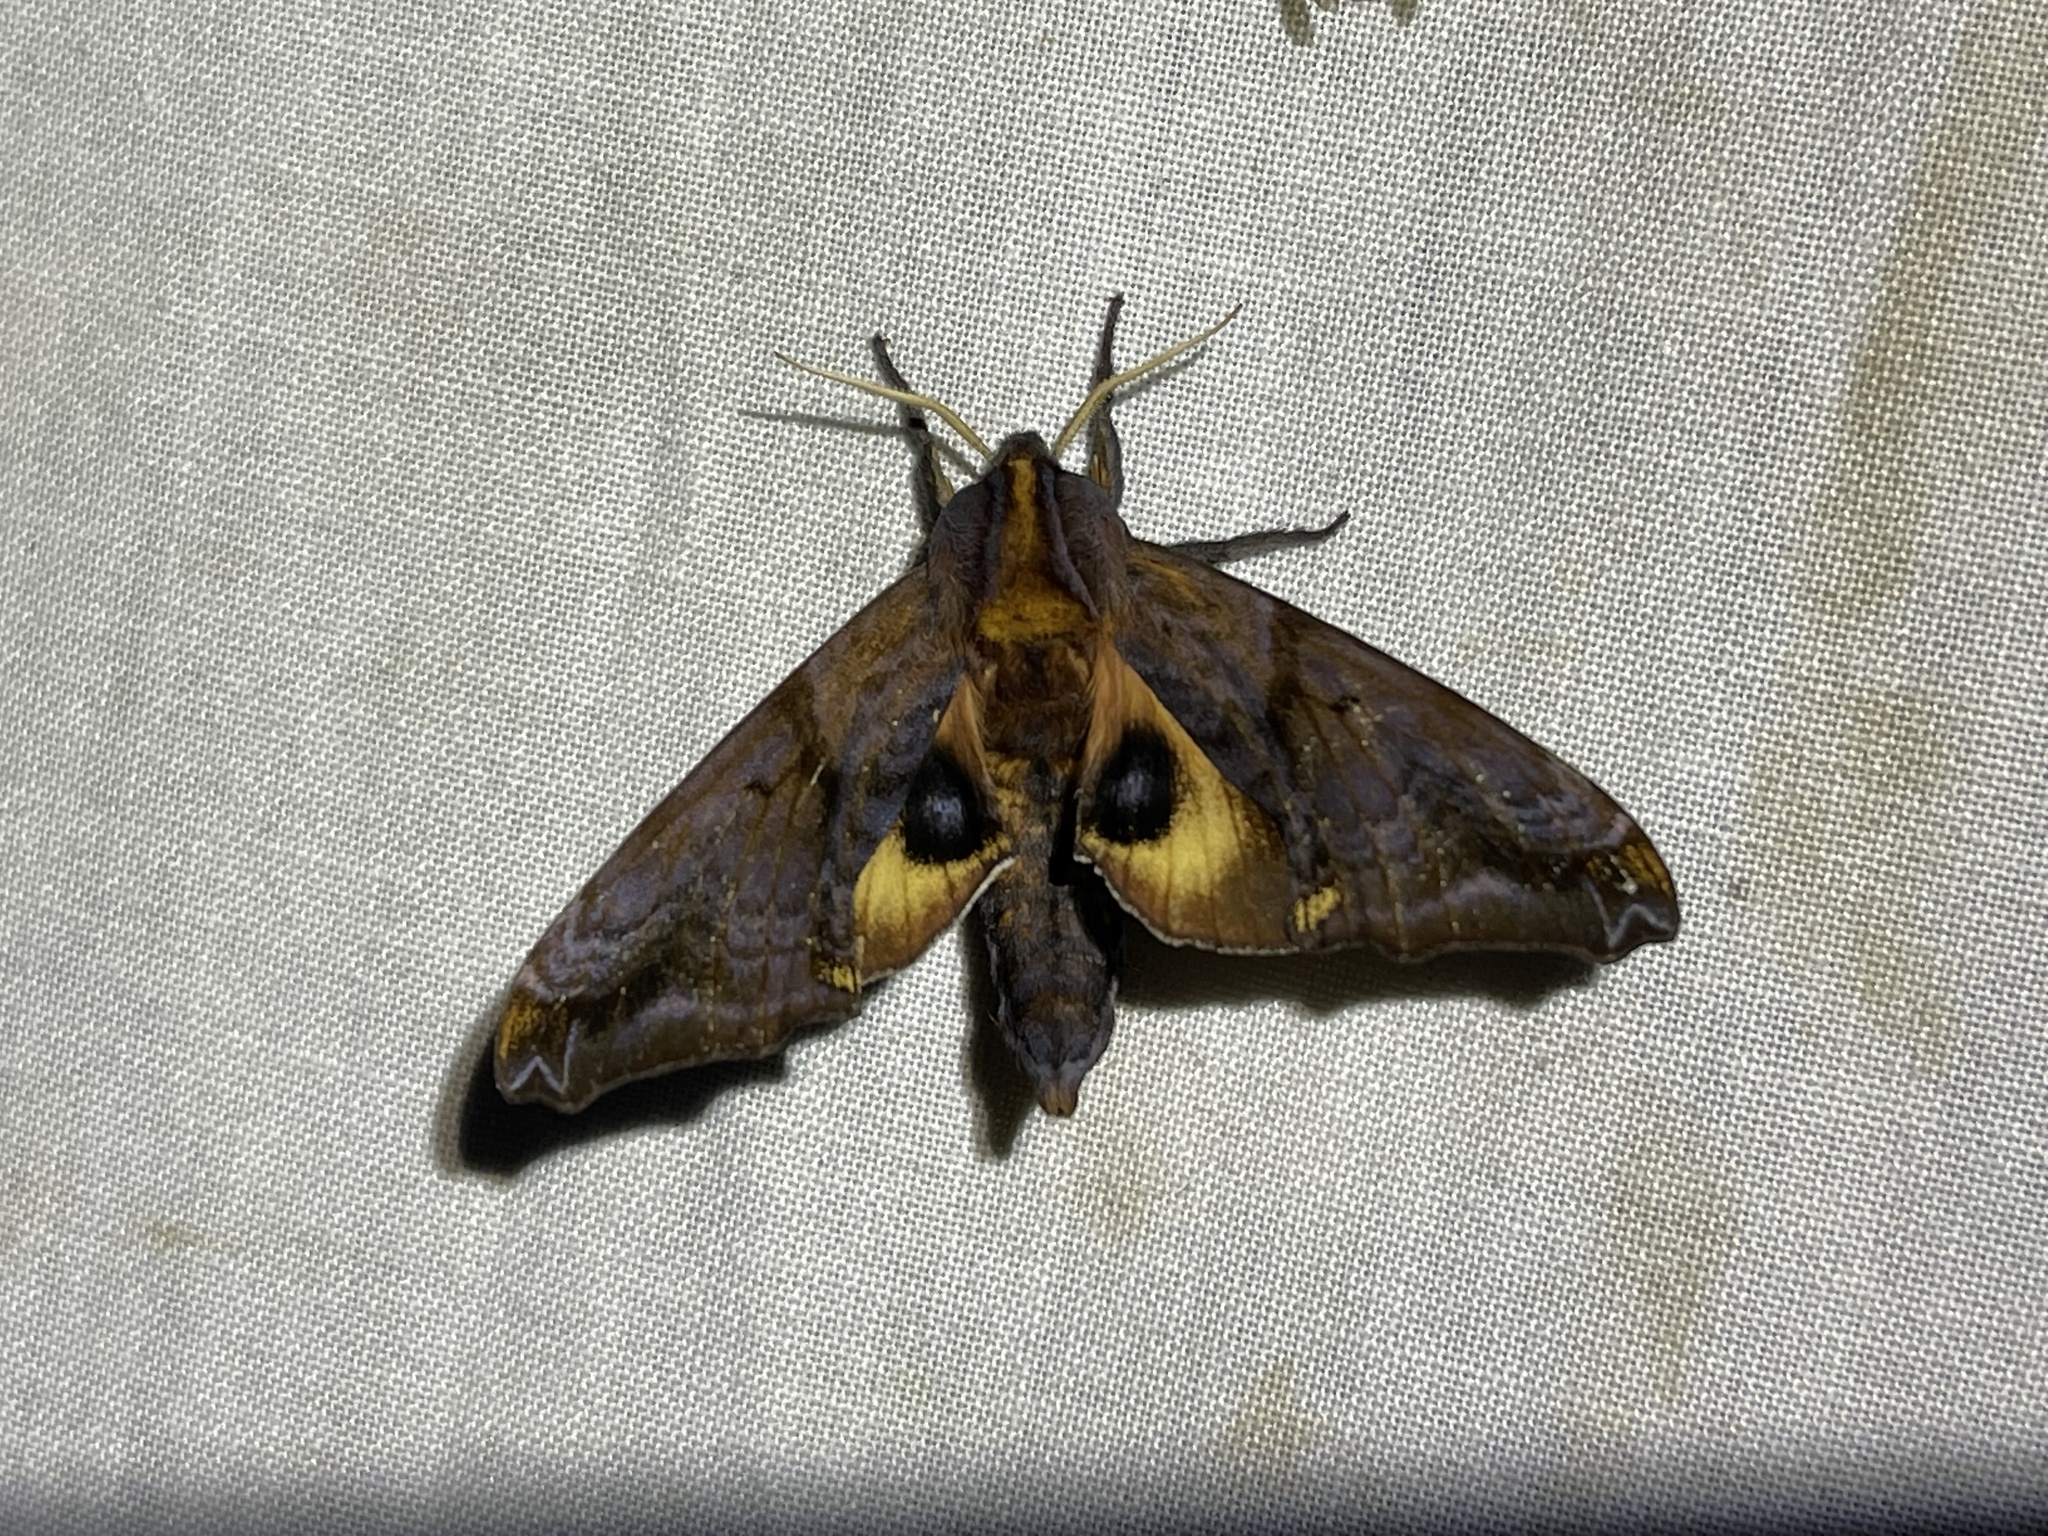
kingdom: Animalia
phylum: Arthropoda
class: Insecta
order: Lepidoptera
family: Sphingidae
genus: Paonias
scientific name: Paonias myops
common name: Small-eyed sphinx
